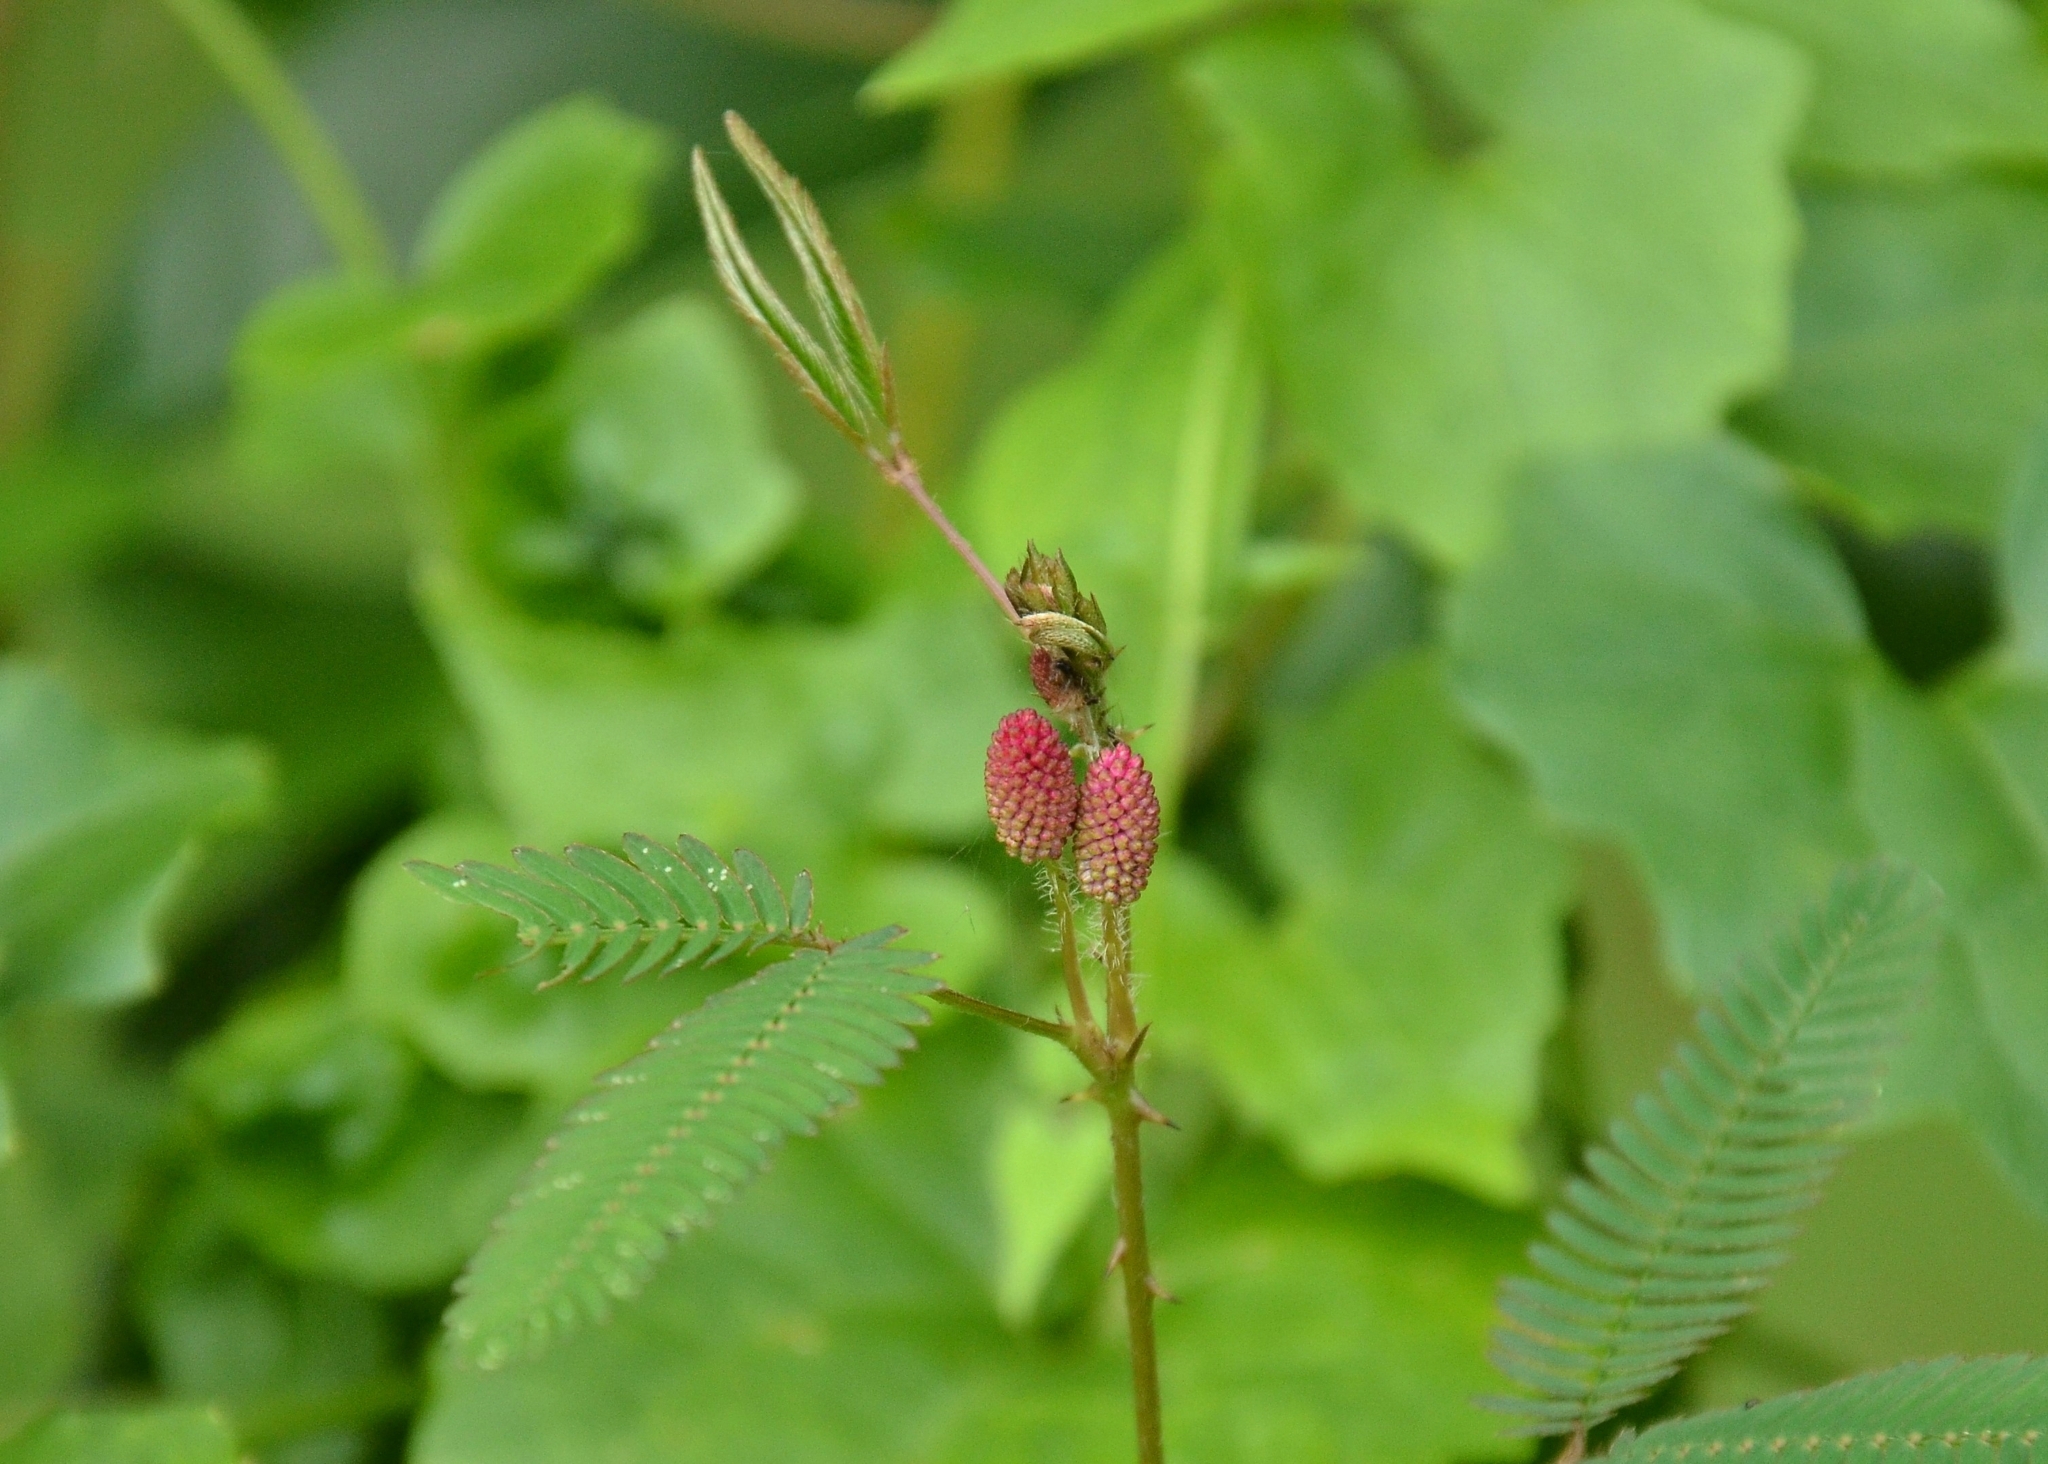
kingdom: Plantae
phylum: Tracheophyta
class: Magnoliopsida
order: Fabales
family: Fabaceae
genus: Mimosa
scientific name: Mimosa pudica
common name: Sensitive plant
